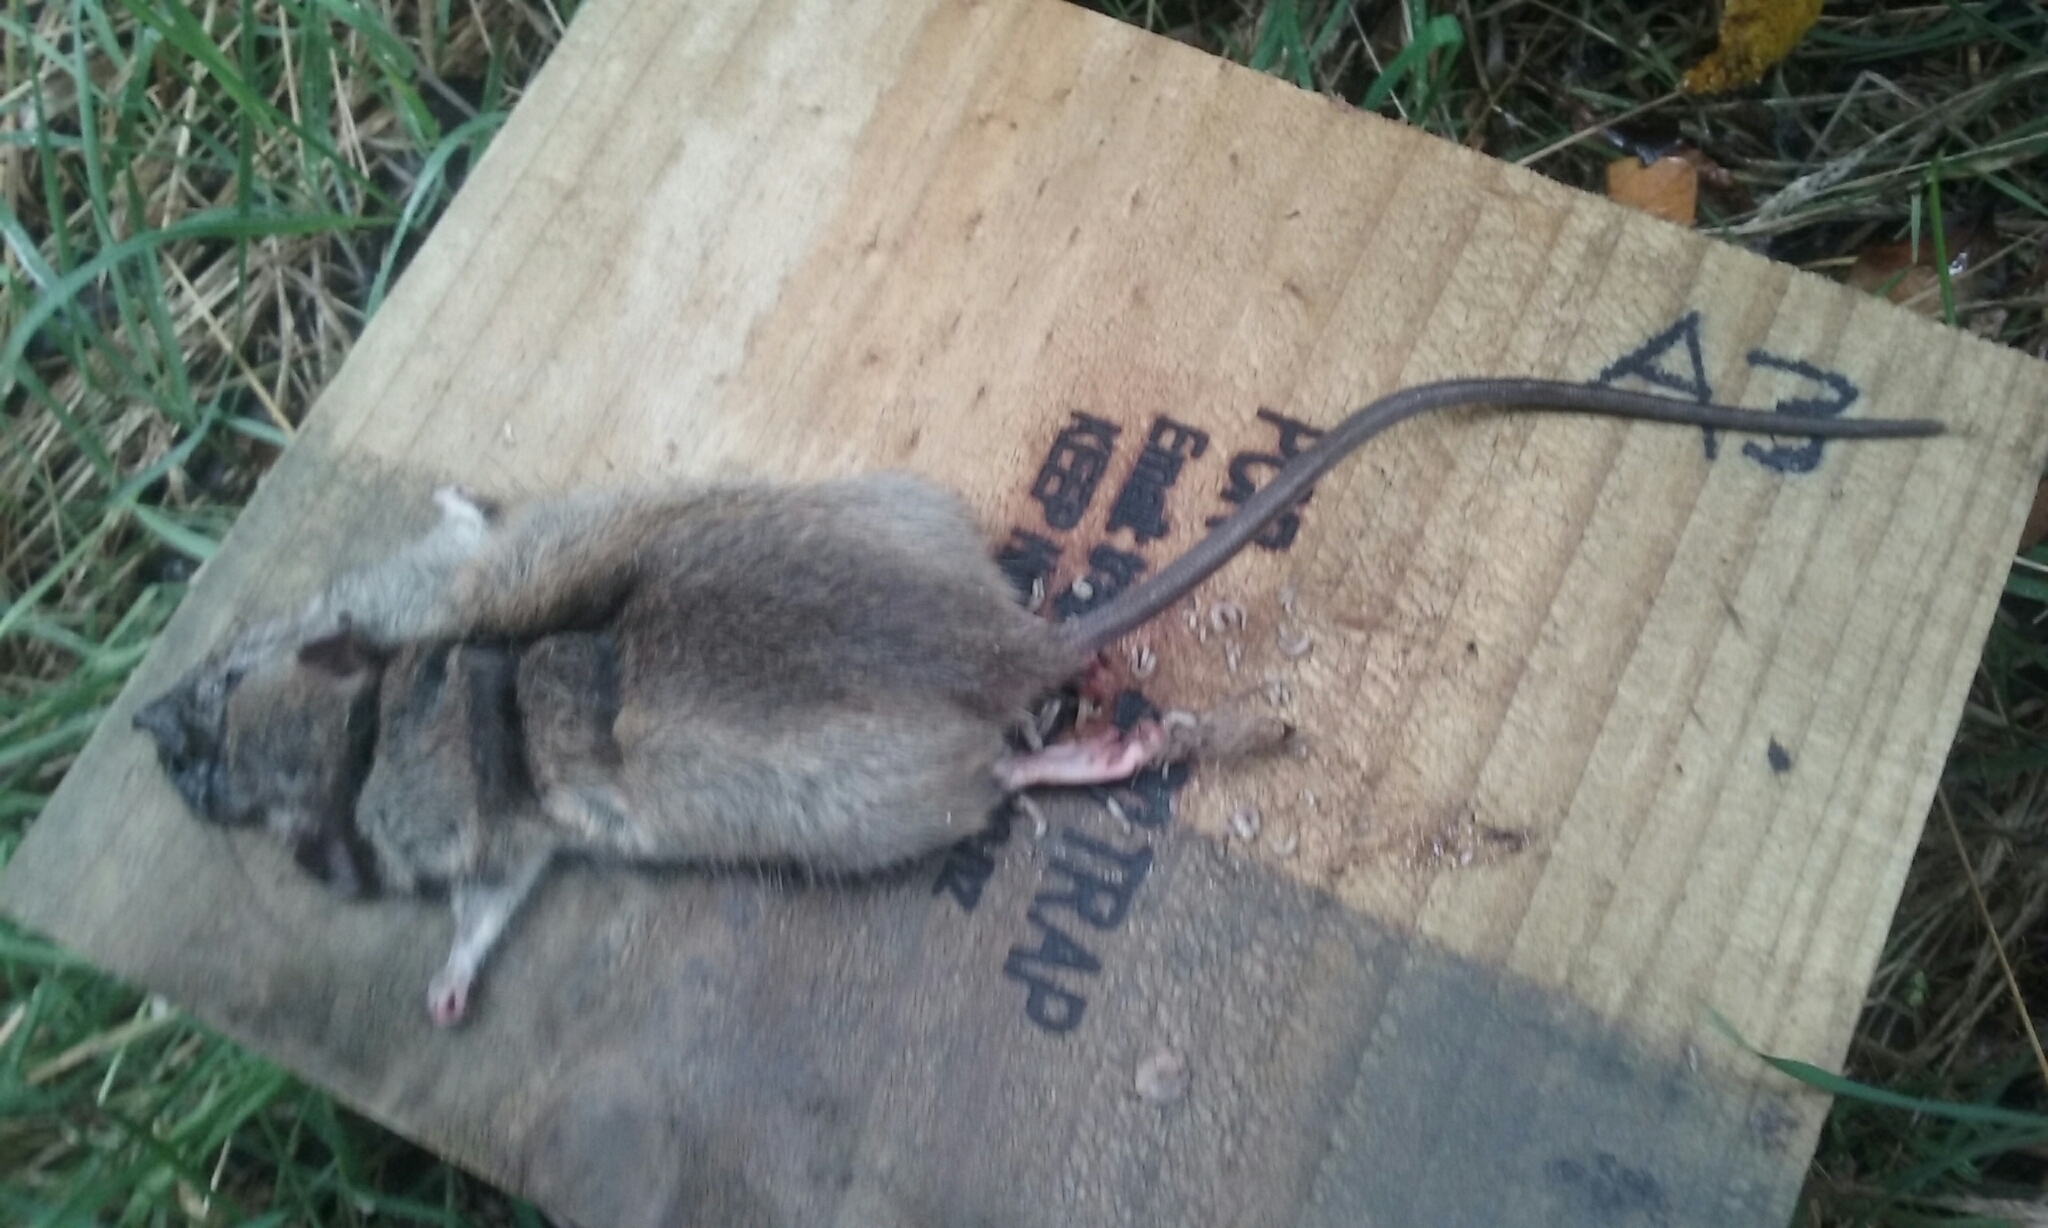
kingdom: Animalia
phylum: Chordata
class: Mammalia
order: Rodentia
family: Muridae
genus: Rattus
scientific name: Rattus rattus
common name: Black rat
